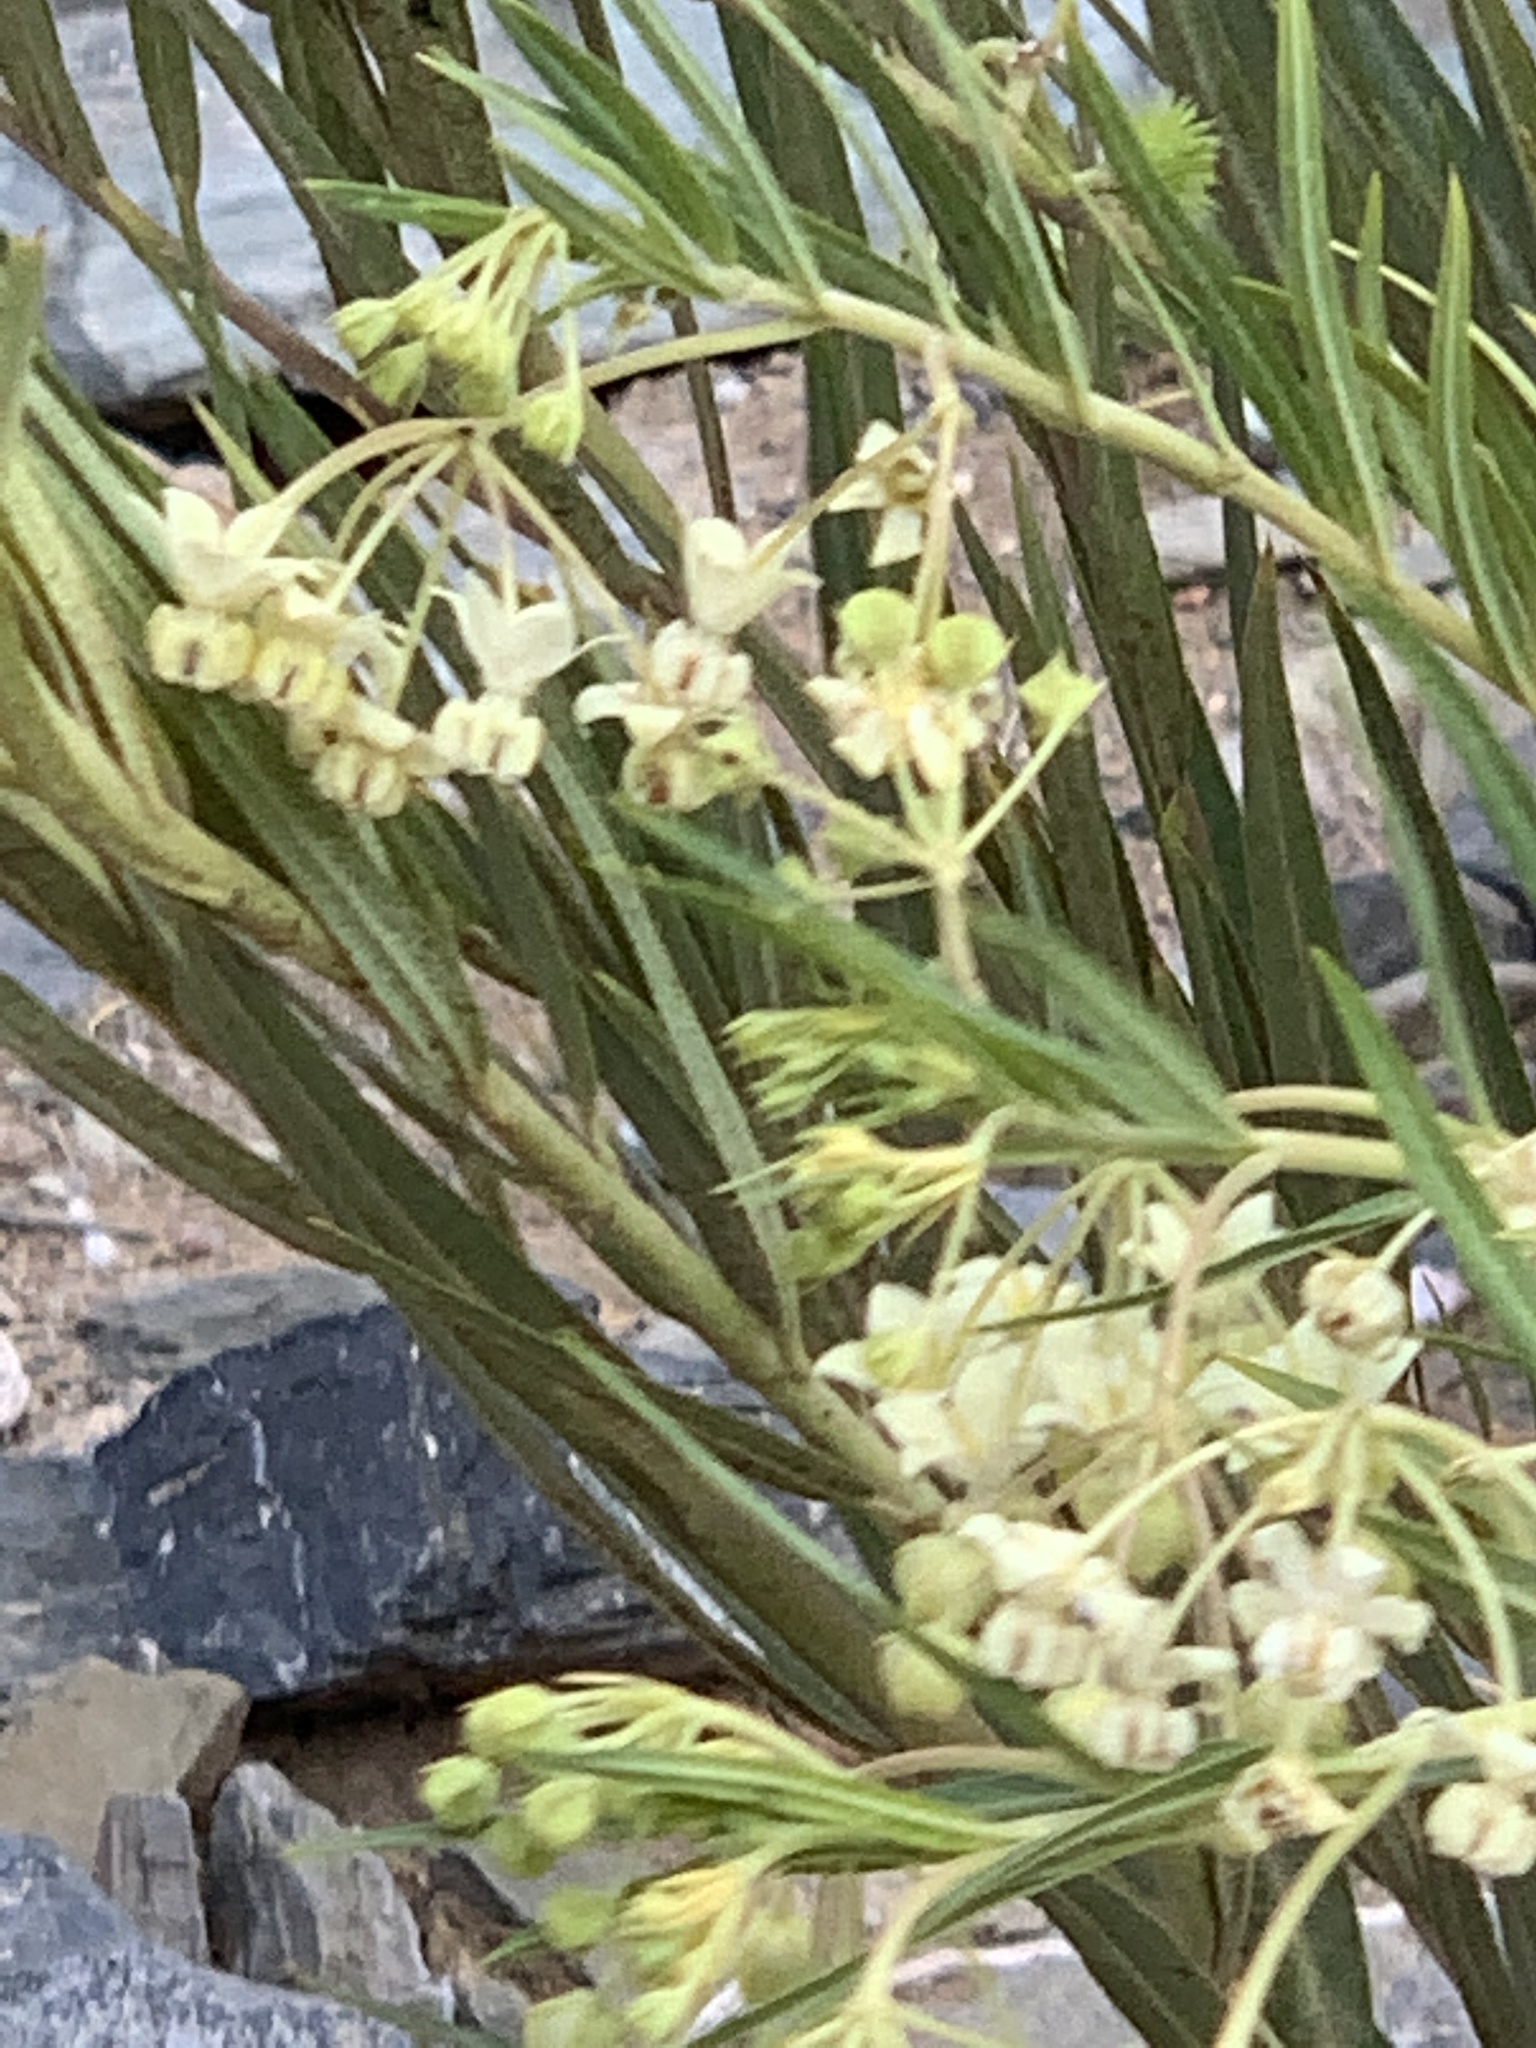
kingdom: Plantae
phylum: Tracheophyta
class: Magnoliopsida
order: Gentianales
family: Apocynaceae
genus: Gomphocarpus
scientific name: Gomphocarpus fruticosus
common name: Milkweed
